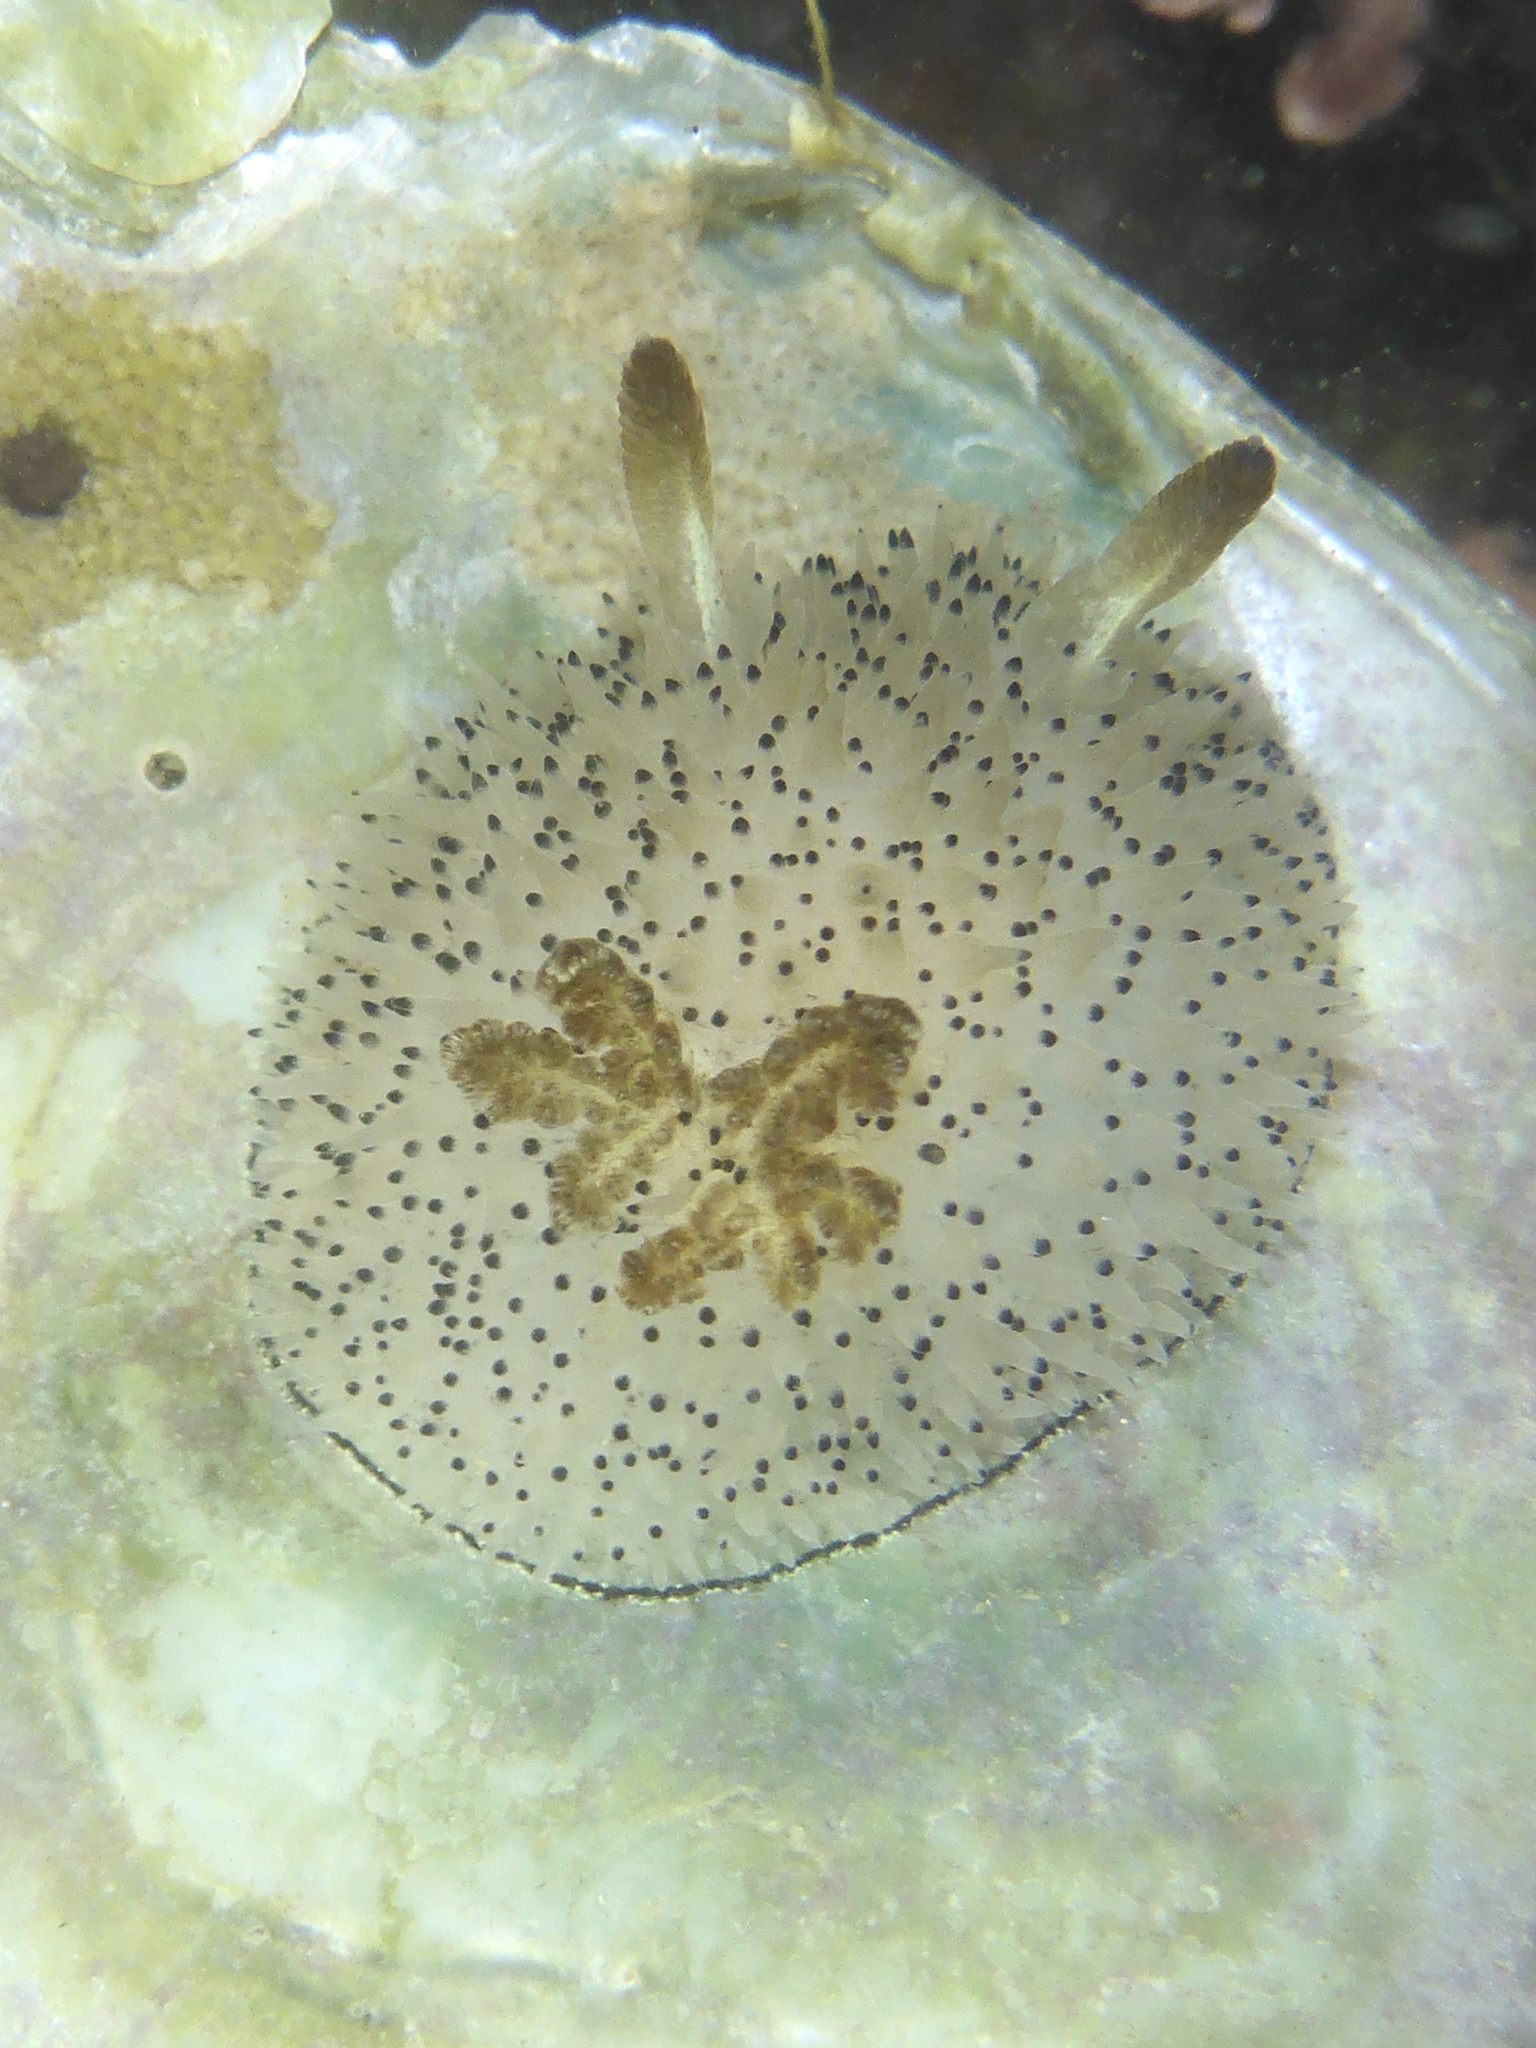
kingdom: Animalia
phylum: Mollusca
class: Gastropoda
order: Nudibranchia
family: Onchidorididae
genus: Acanthodoris
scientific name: Acanthodoris rhodoceras
